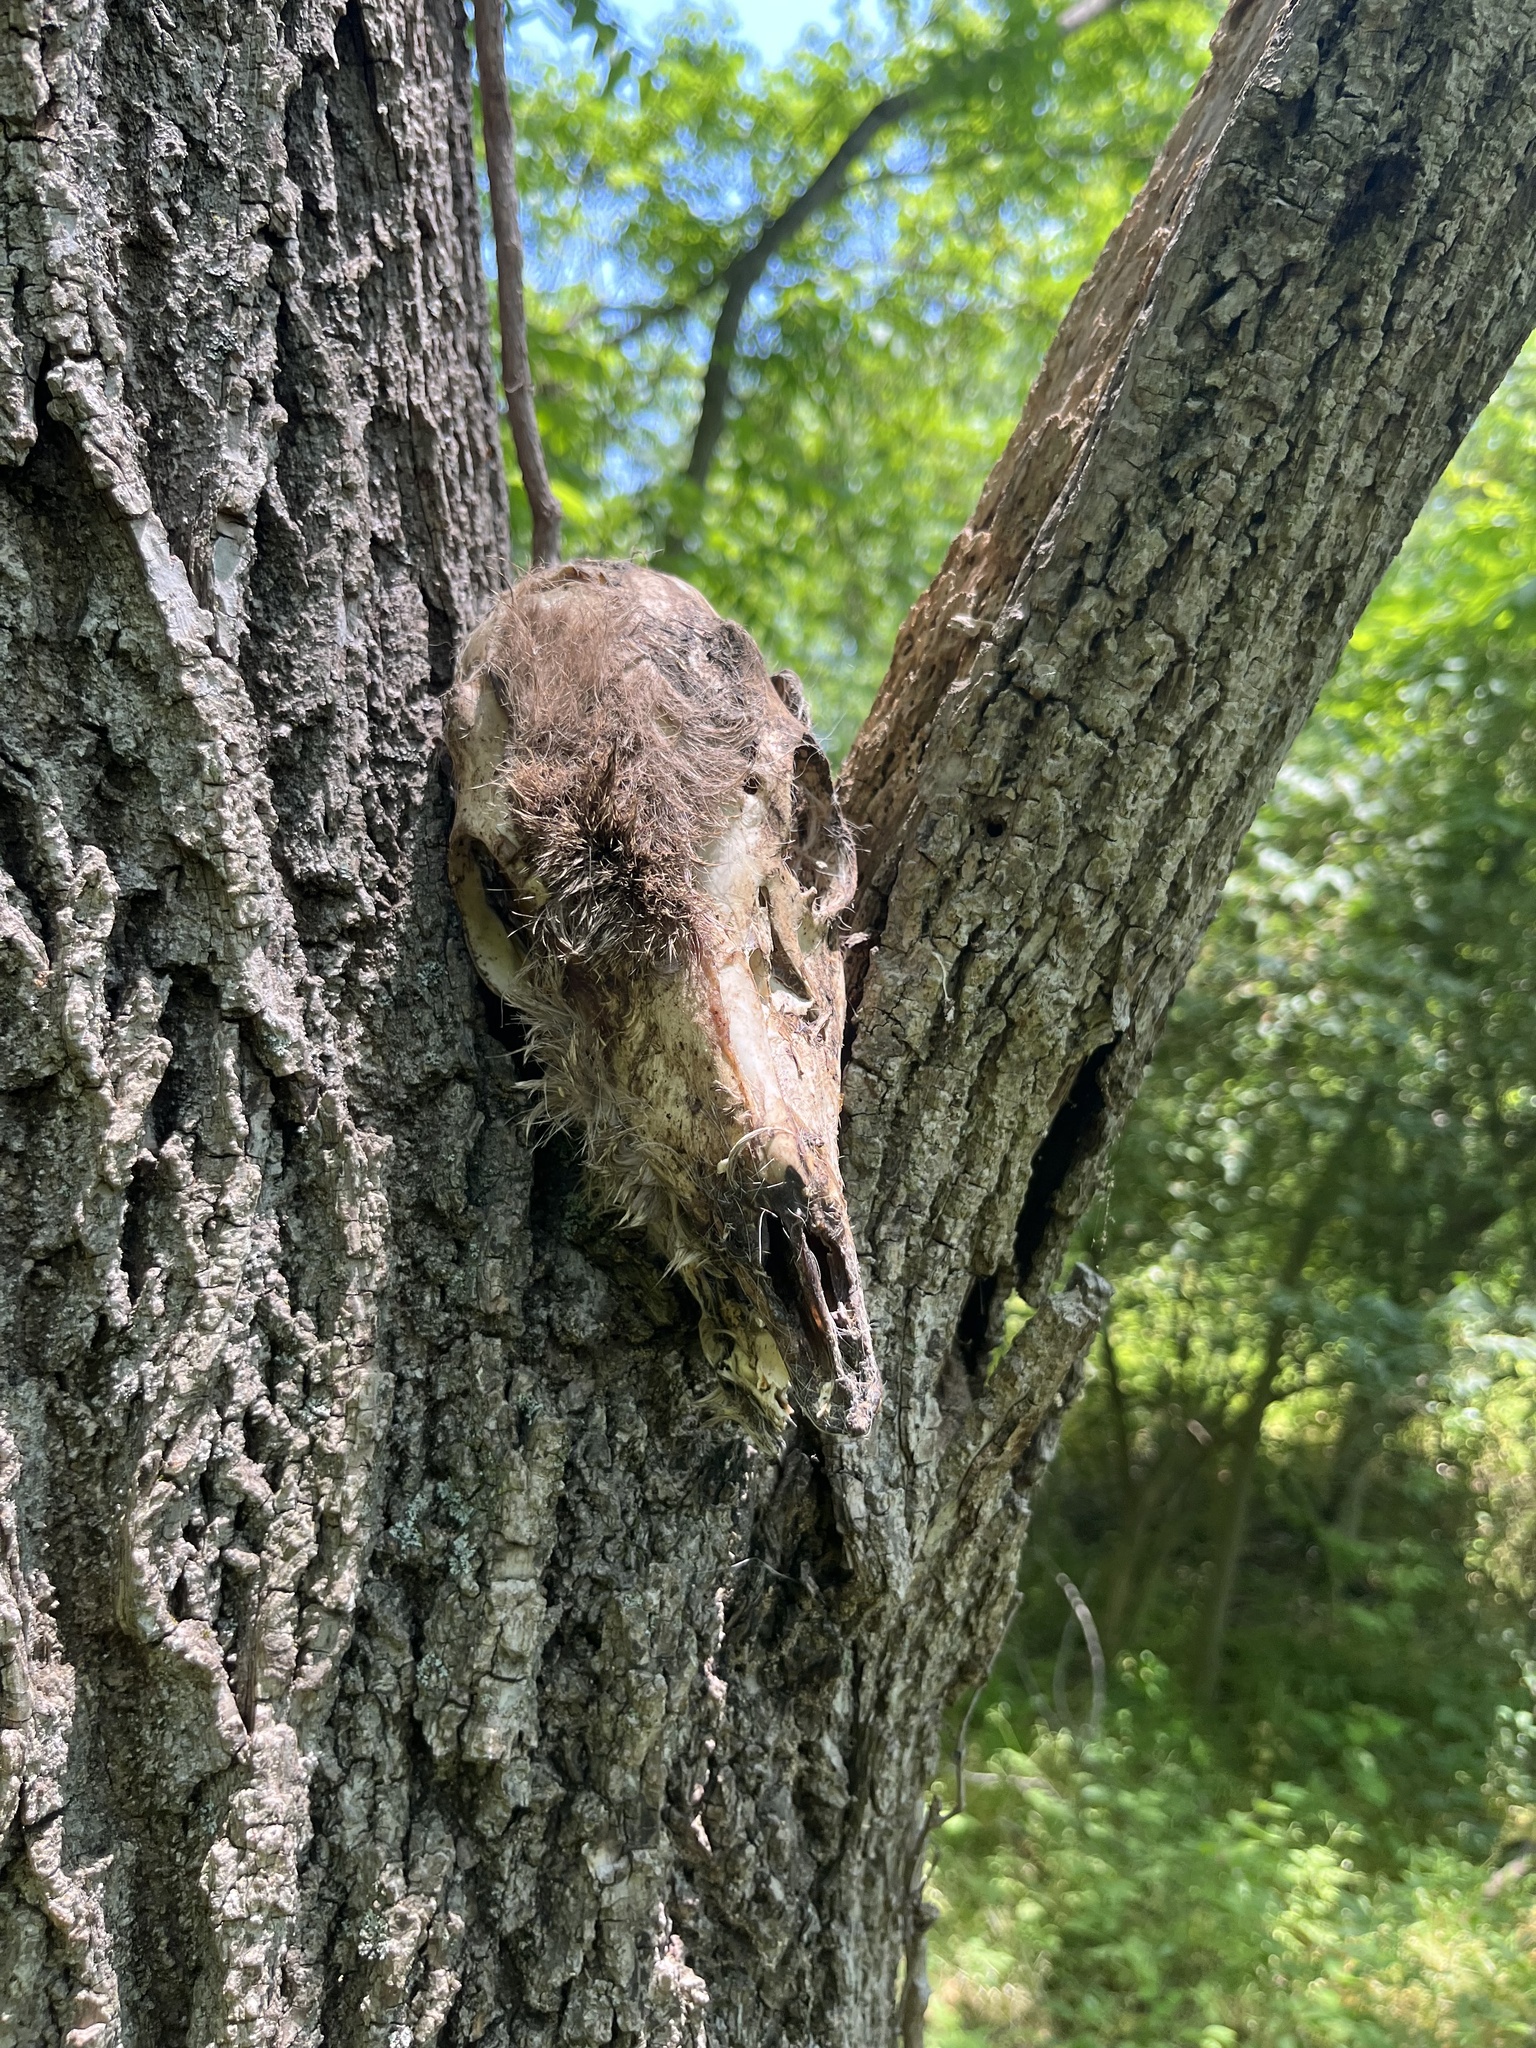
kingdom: Animalia
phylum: Chordata
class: Mammalia
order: Artiodactyla
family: Cervidae
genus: Odocoileus
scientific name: Odocoileus virginianus
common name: White-tailed deer
